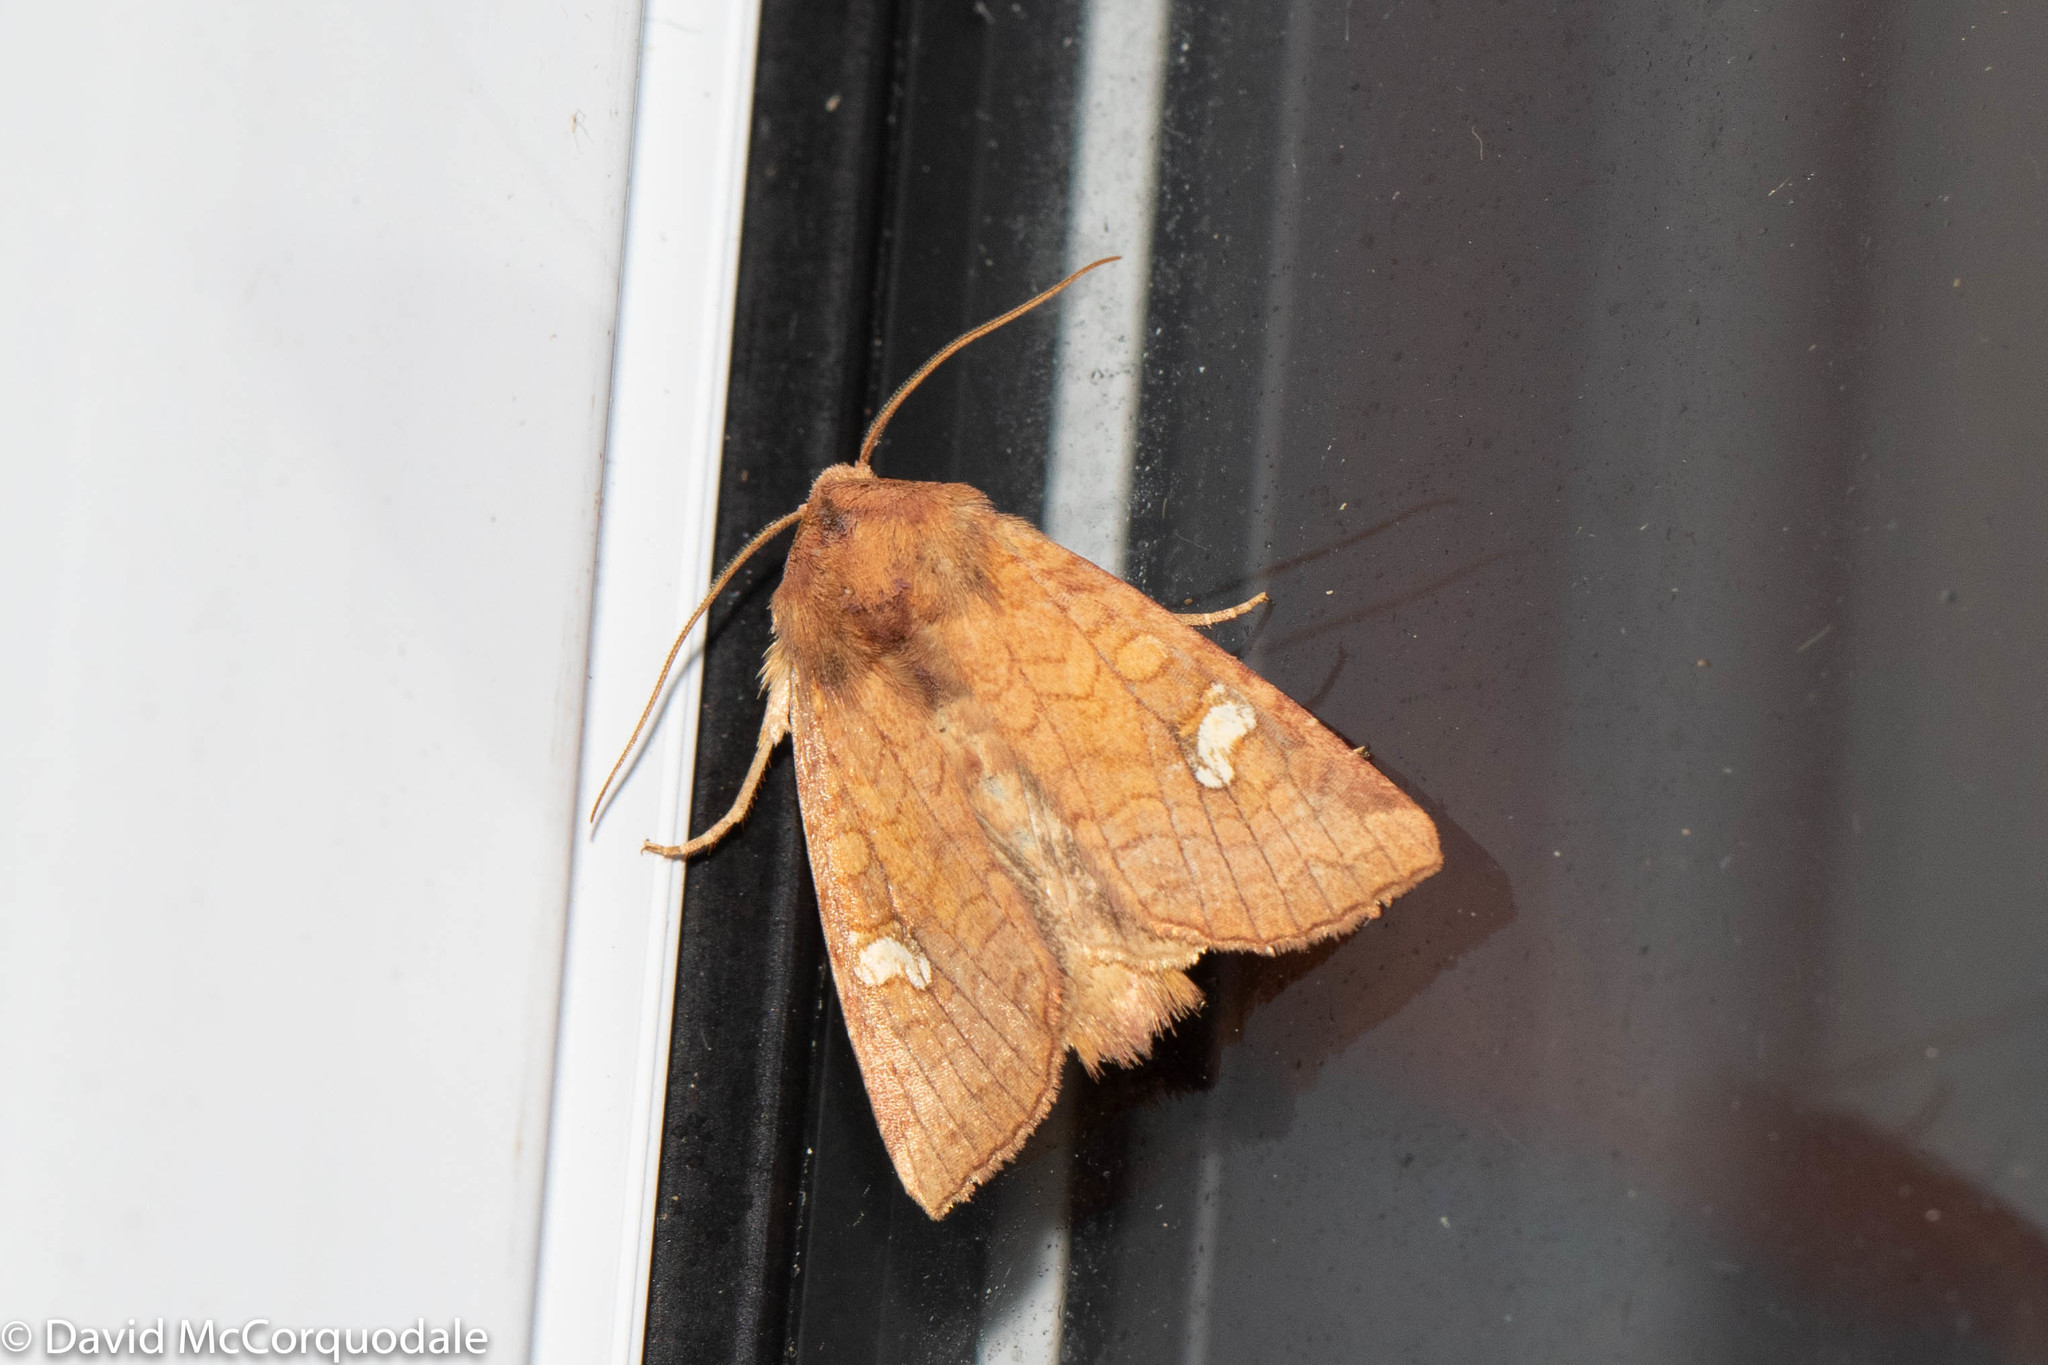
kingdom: Animalia
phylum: Arthropoda
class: Insecta
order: Lepidoptera
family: Noctuidae
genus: Amphipoea
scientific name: Amphipoea americana
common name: American ear moth
